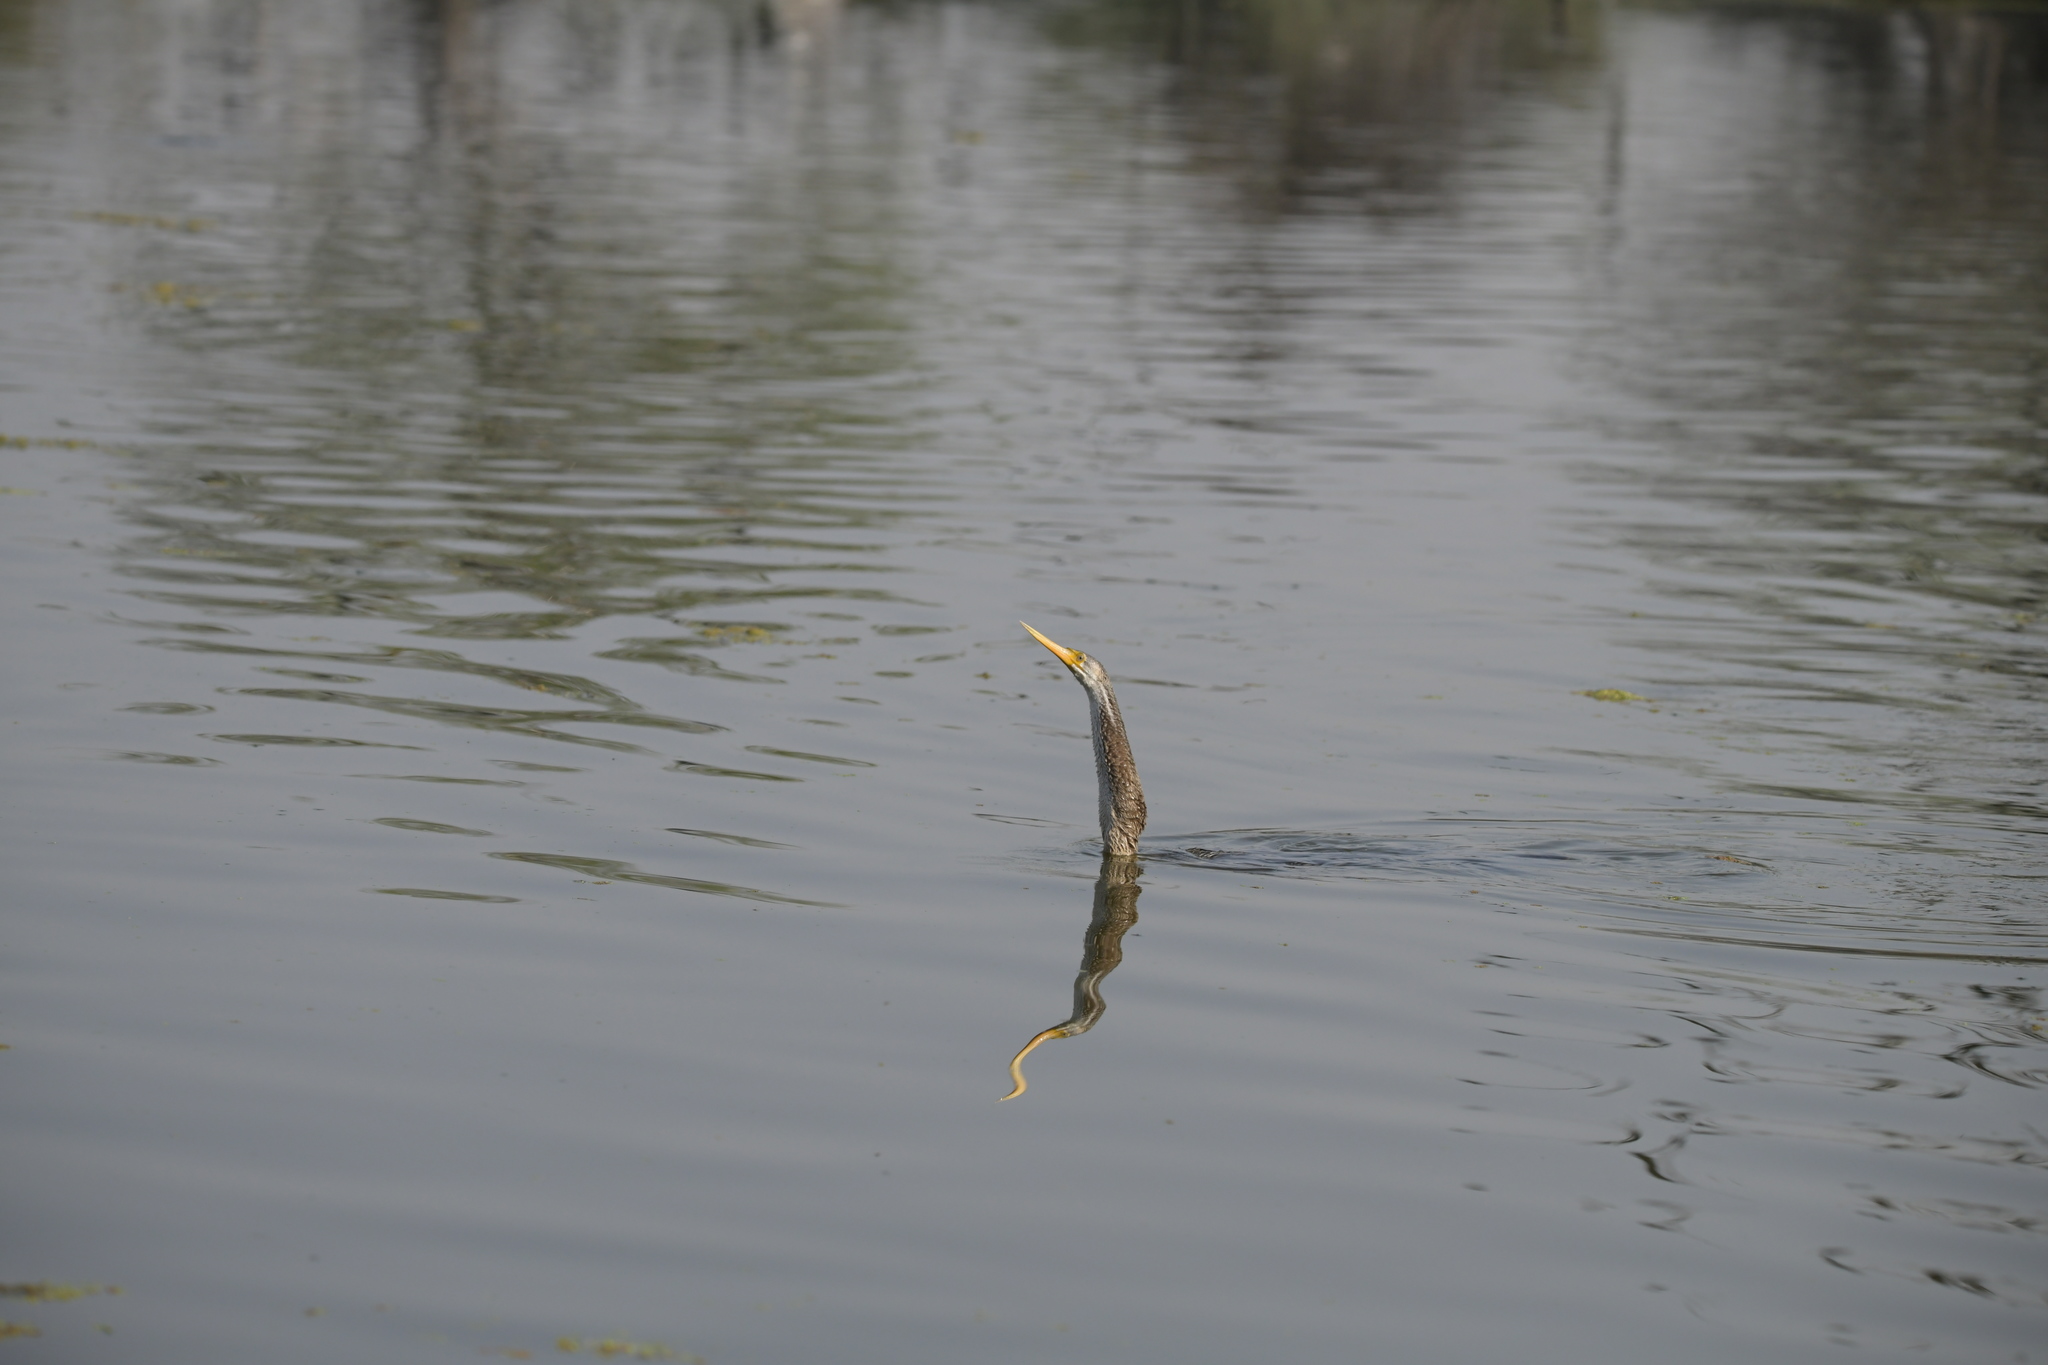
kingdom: Animalia
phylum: Chordata
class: Aves
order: Suliformes
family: Anhingidae
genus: Anhinga
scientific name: Anhinga melanogaster
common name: Oriental darter
